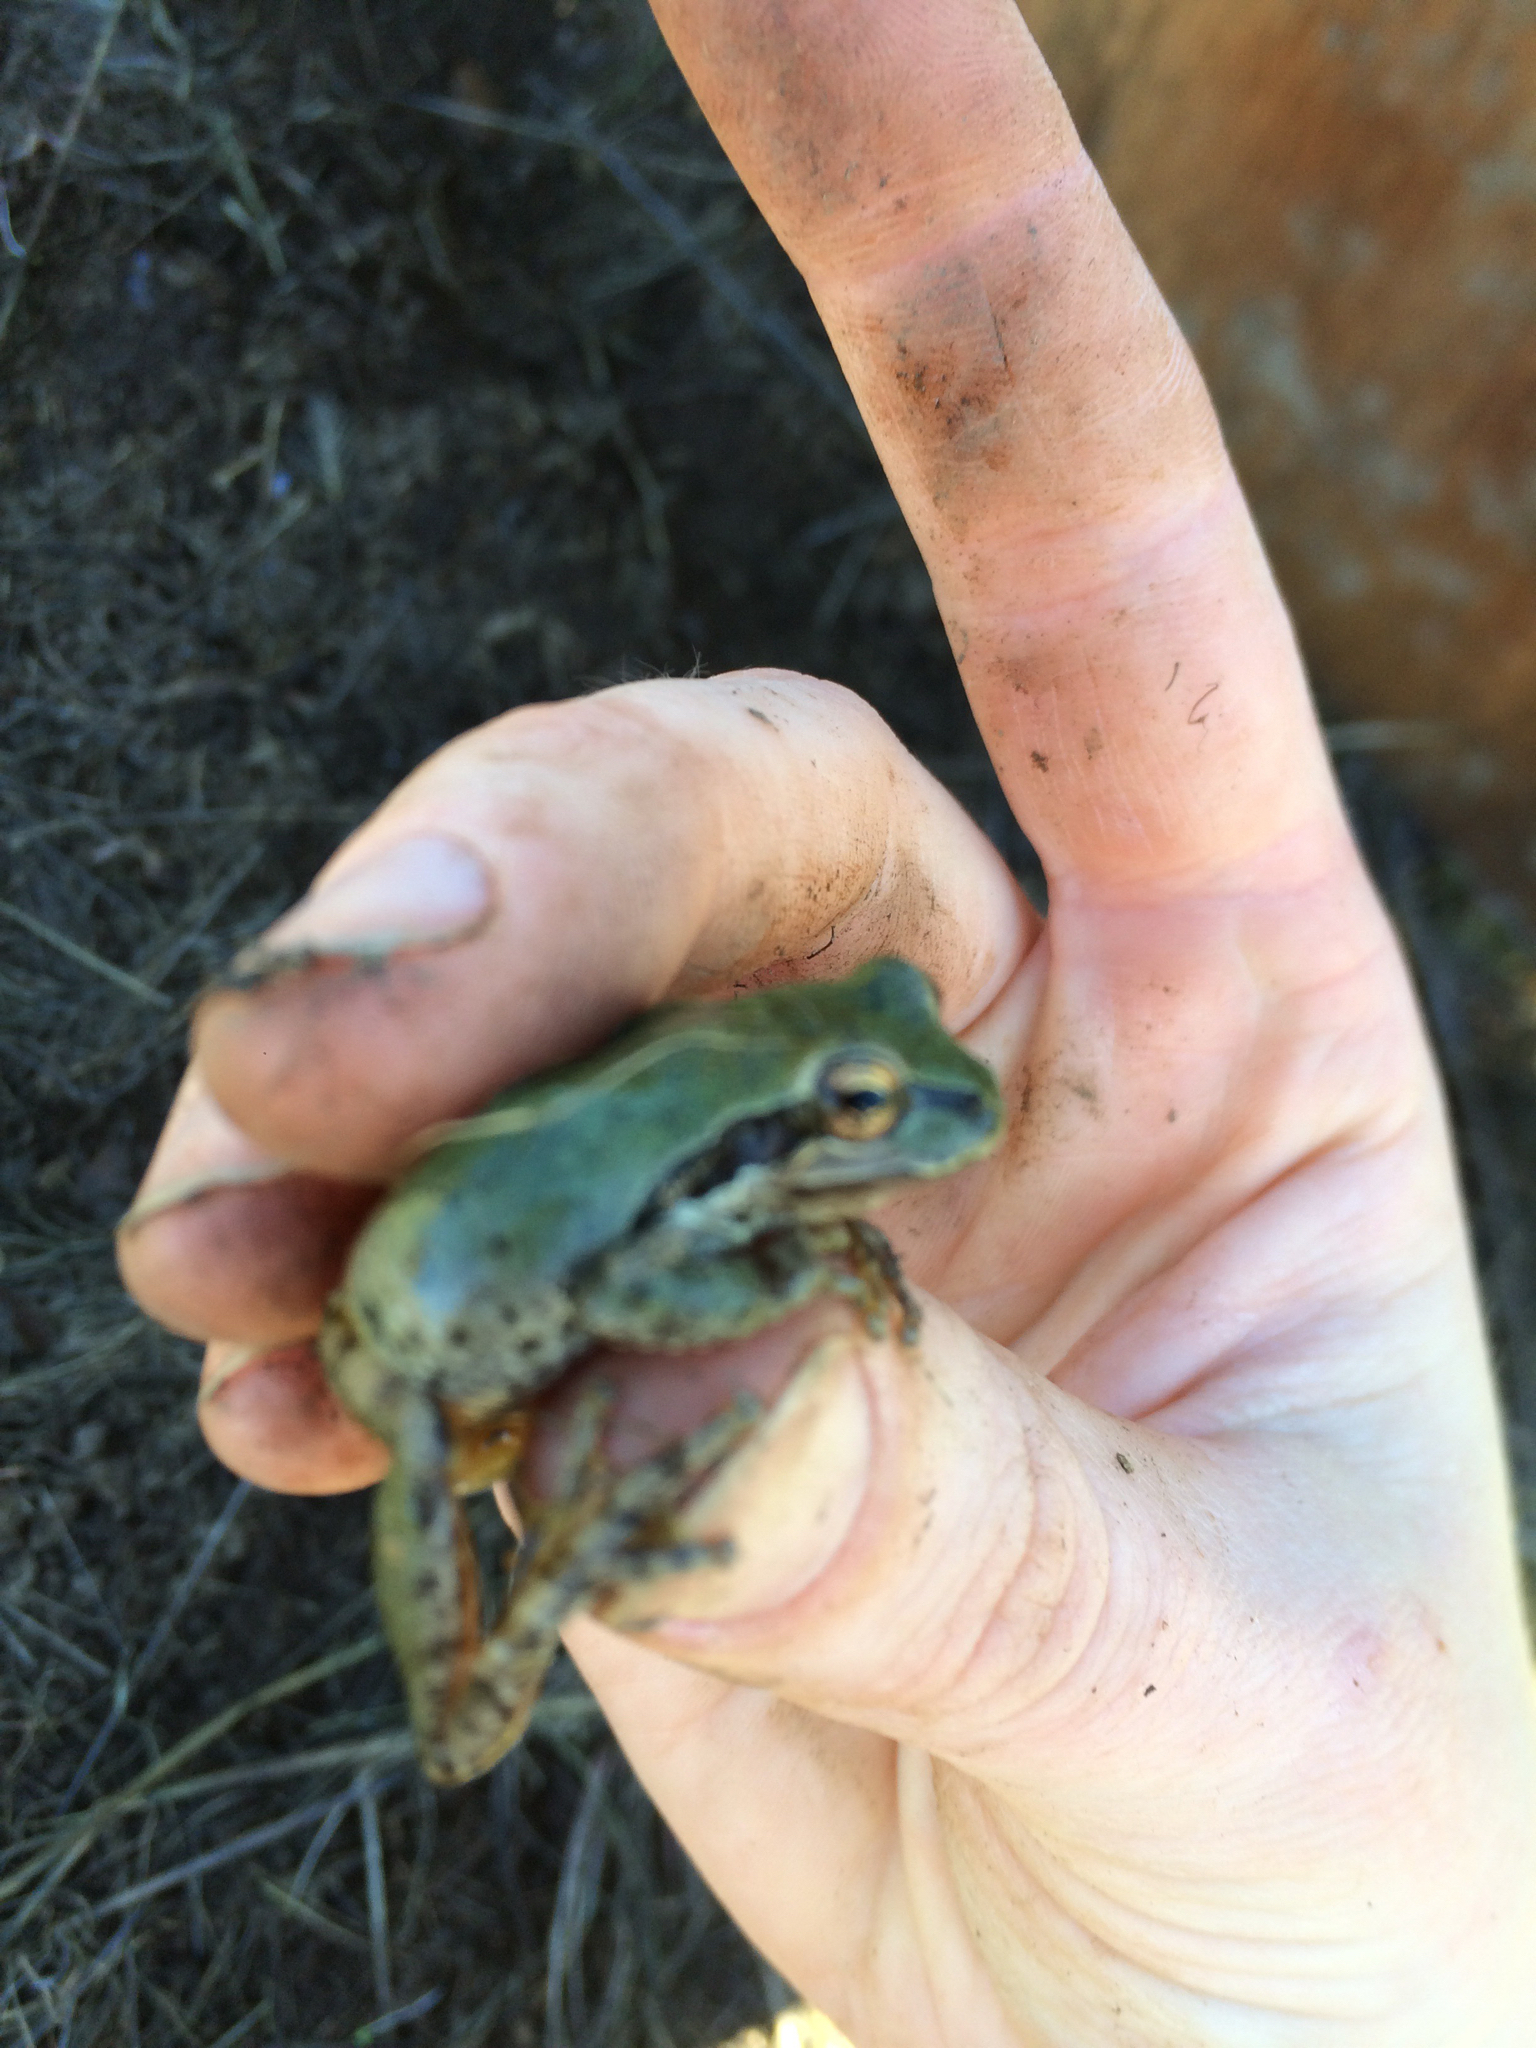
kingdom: Animalia
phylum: Chordata
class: Amphibia
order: Anura
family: Hylidae
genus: Pseudacris
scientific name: Pseudacris regilla
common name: Pacific chorus frog
